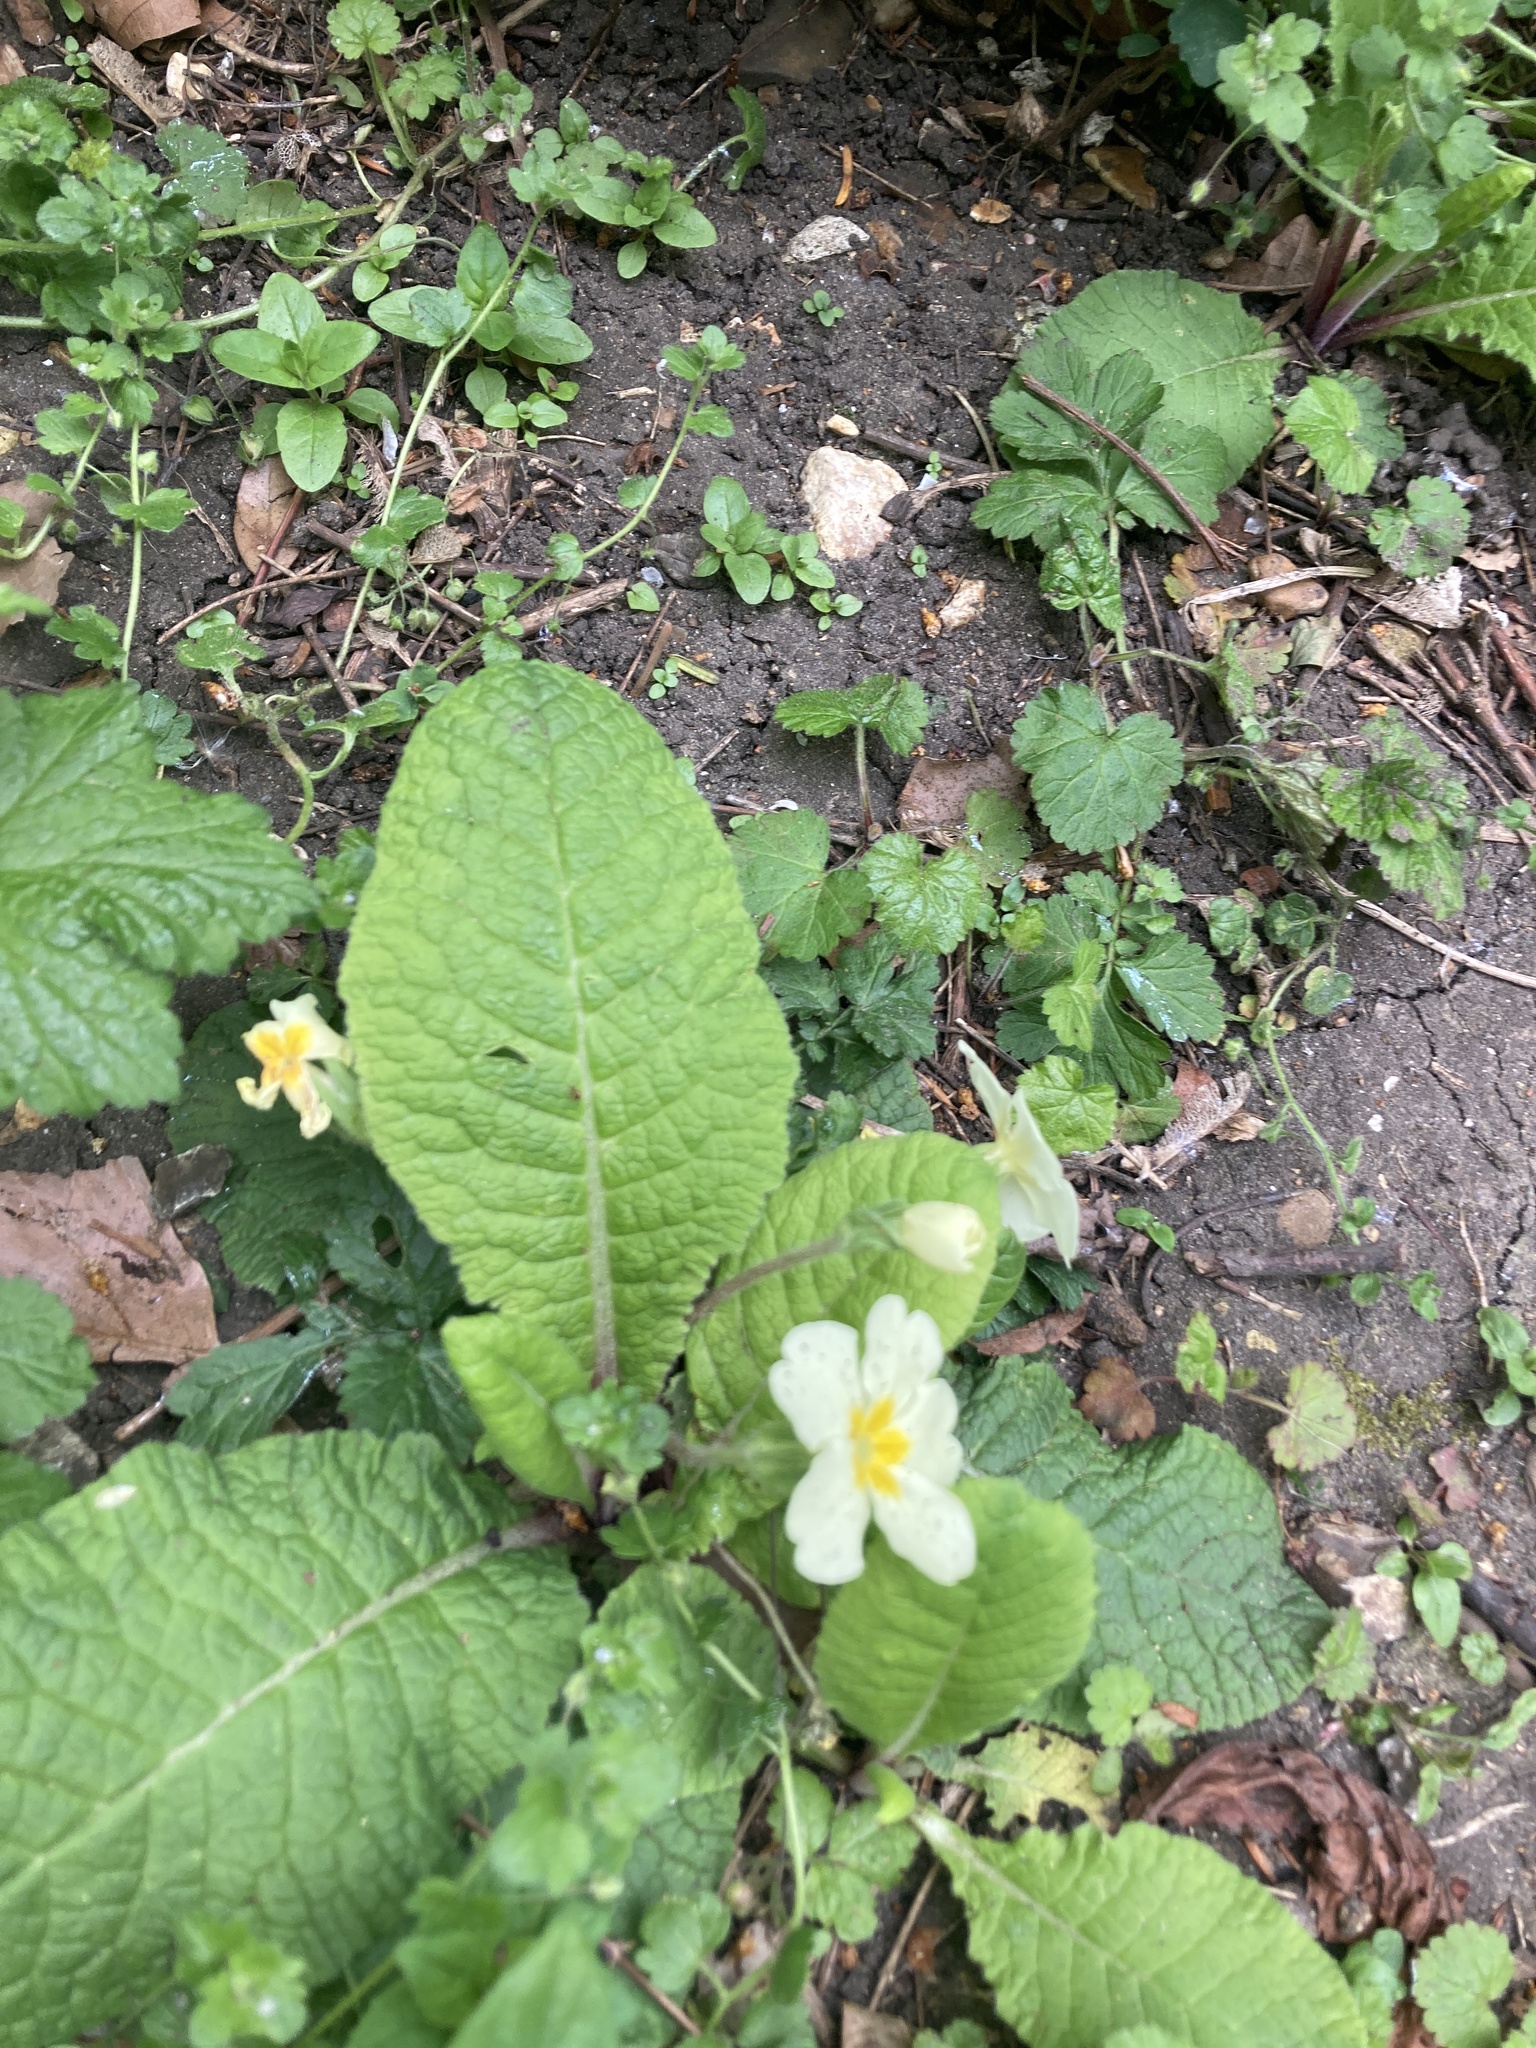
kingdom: Plantae
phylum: Tracheophyta
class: Magnoliopsida
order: Ericales
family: Primulaceae
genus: Primula
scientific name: Primula vulgaris
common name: Primrose
